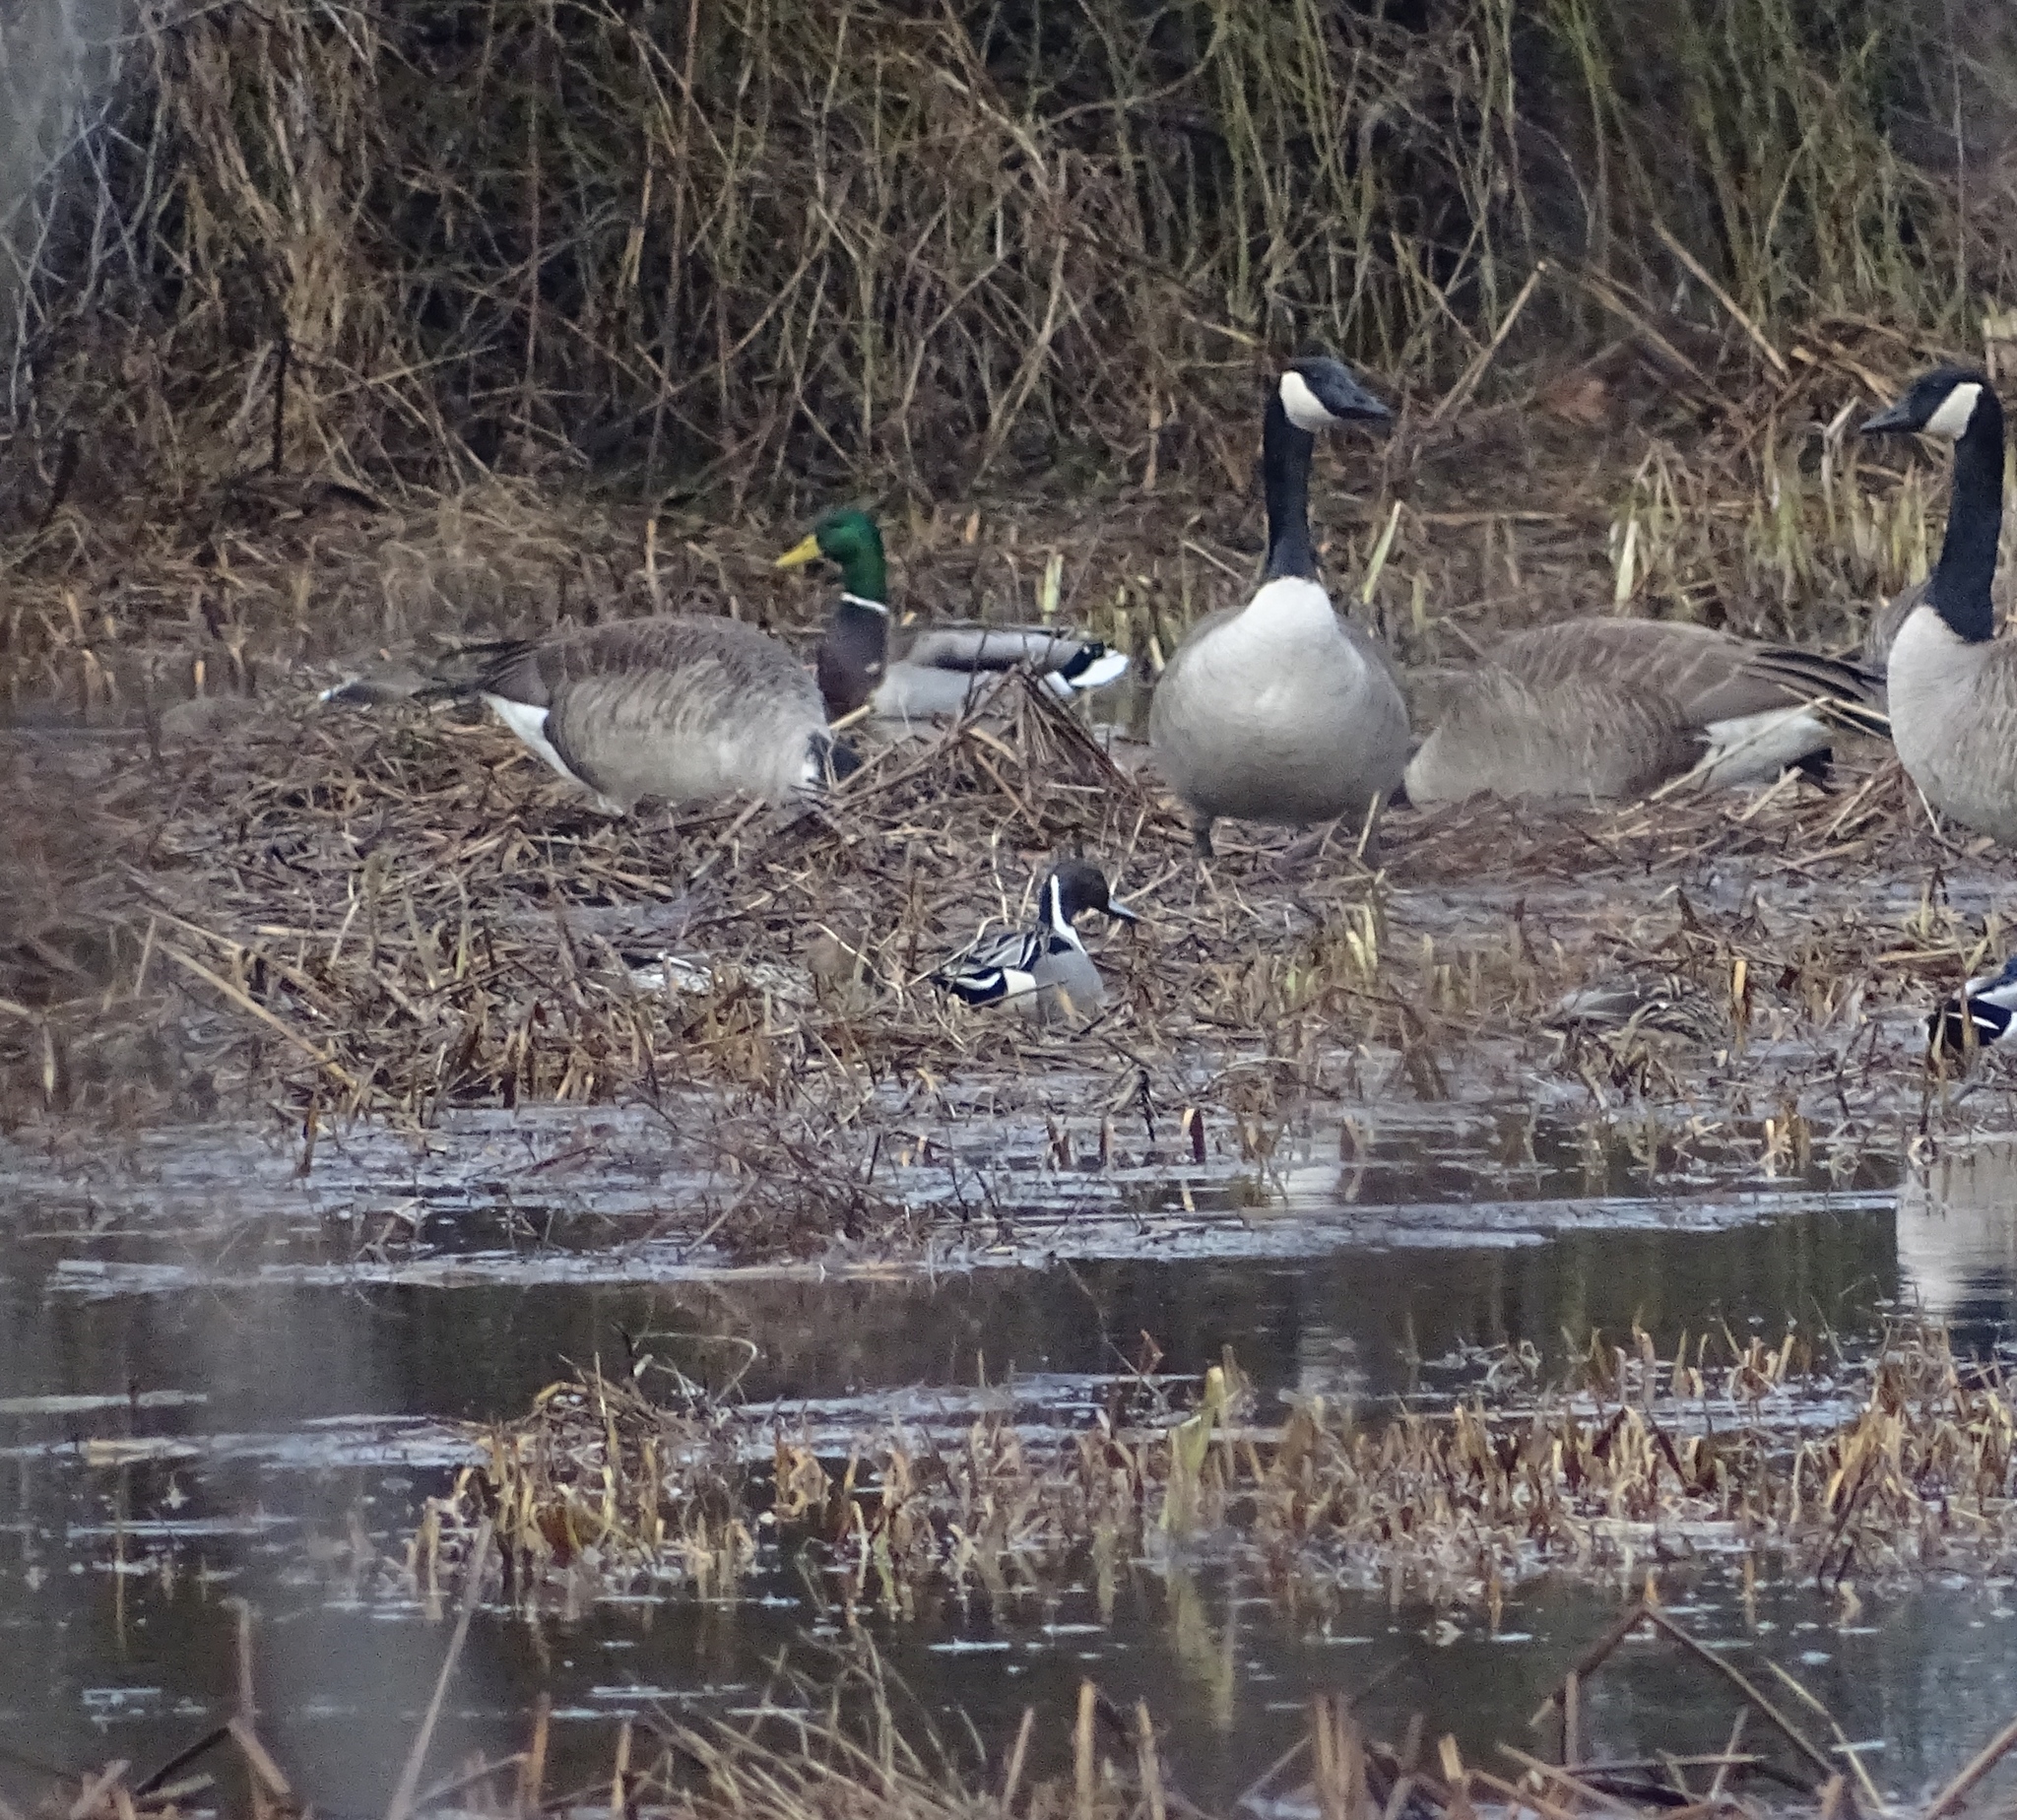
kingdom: Animalia
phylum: Chordata
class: Aves
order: Anseriformes
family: Anatidae
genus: Anas
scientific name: Anas acuta
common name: Northern pintail
